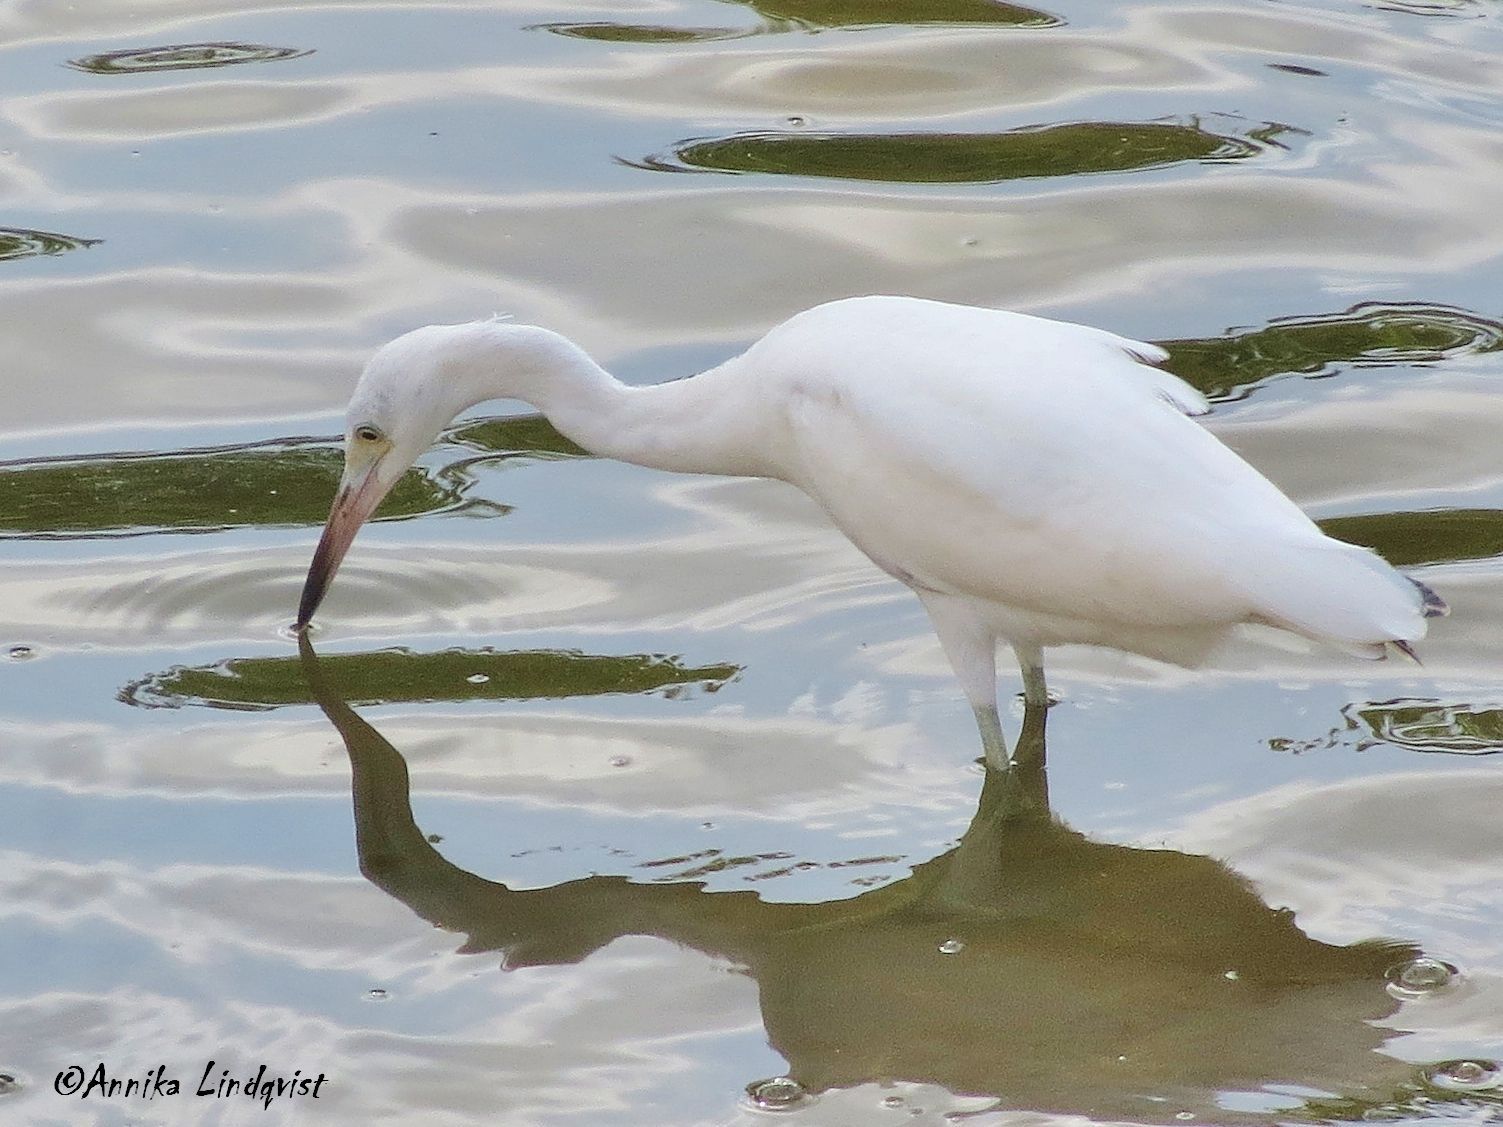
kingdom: Animalia
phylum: Chordata
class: Aves
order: Pelecaniformes
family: Ardeidae
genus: Egretta
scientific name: Egretta caerulea
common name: Little blue heron
